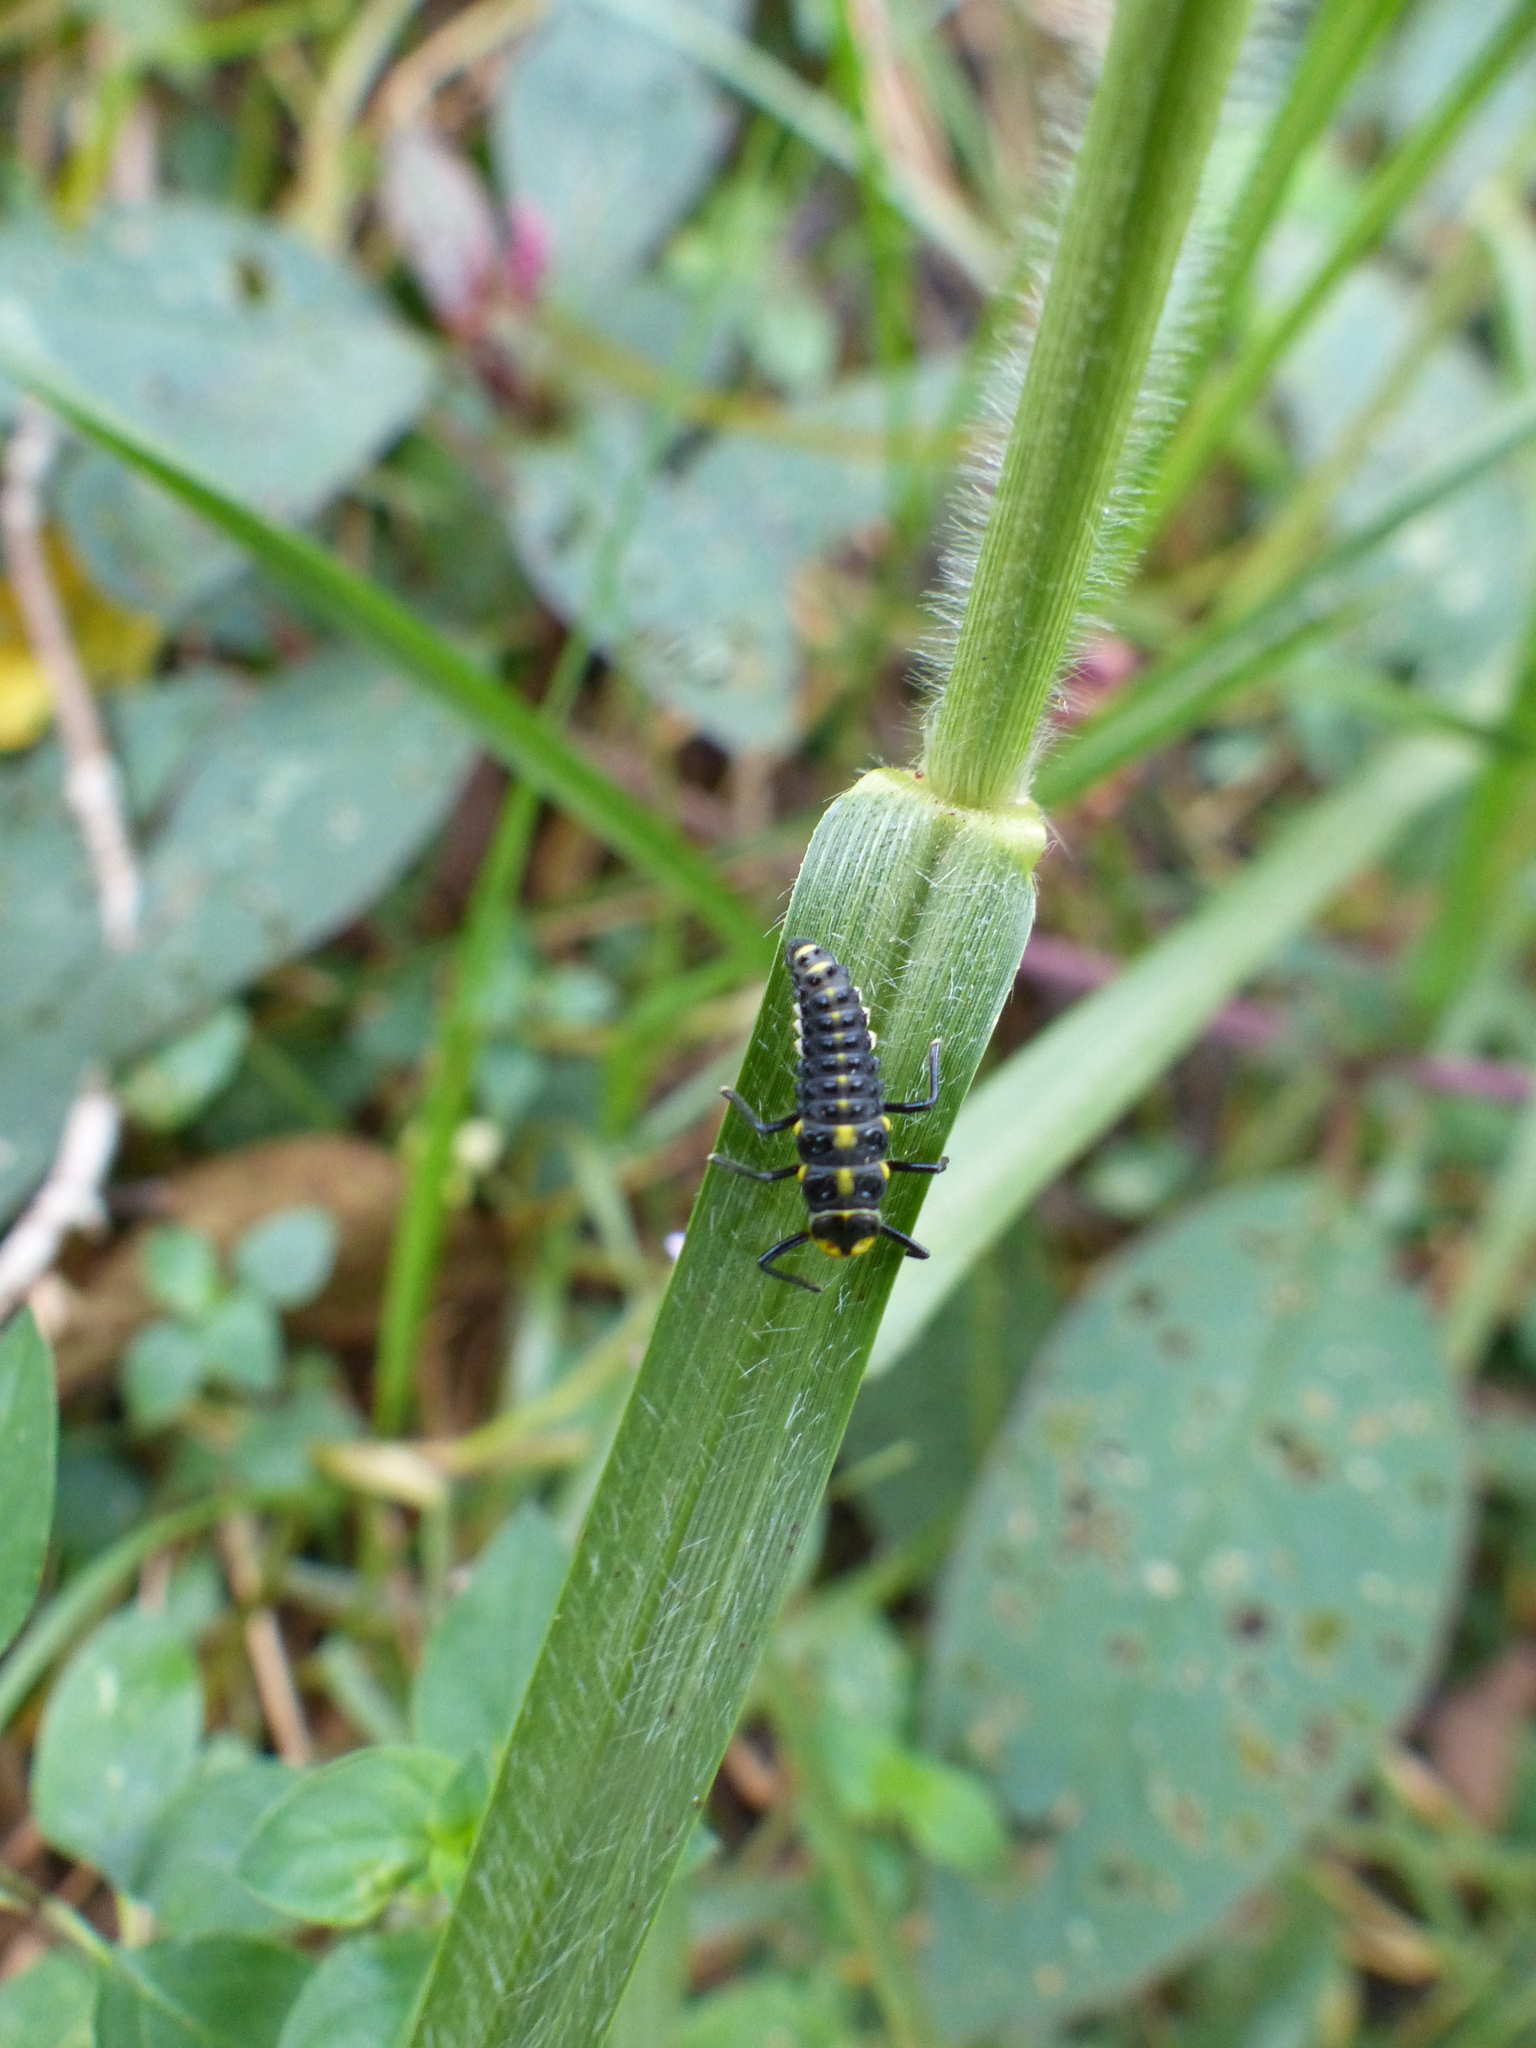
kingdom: Animalia
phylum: Arthropoda
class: Insecta
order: Coleoptera
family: Coccinellidae
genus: Neda
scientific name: Neda norrisi
